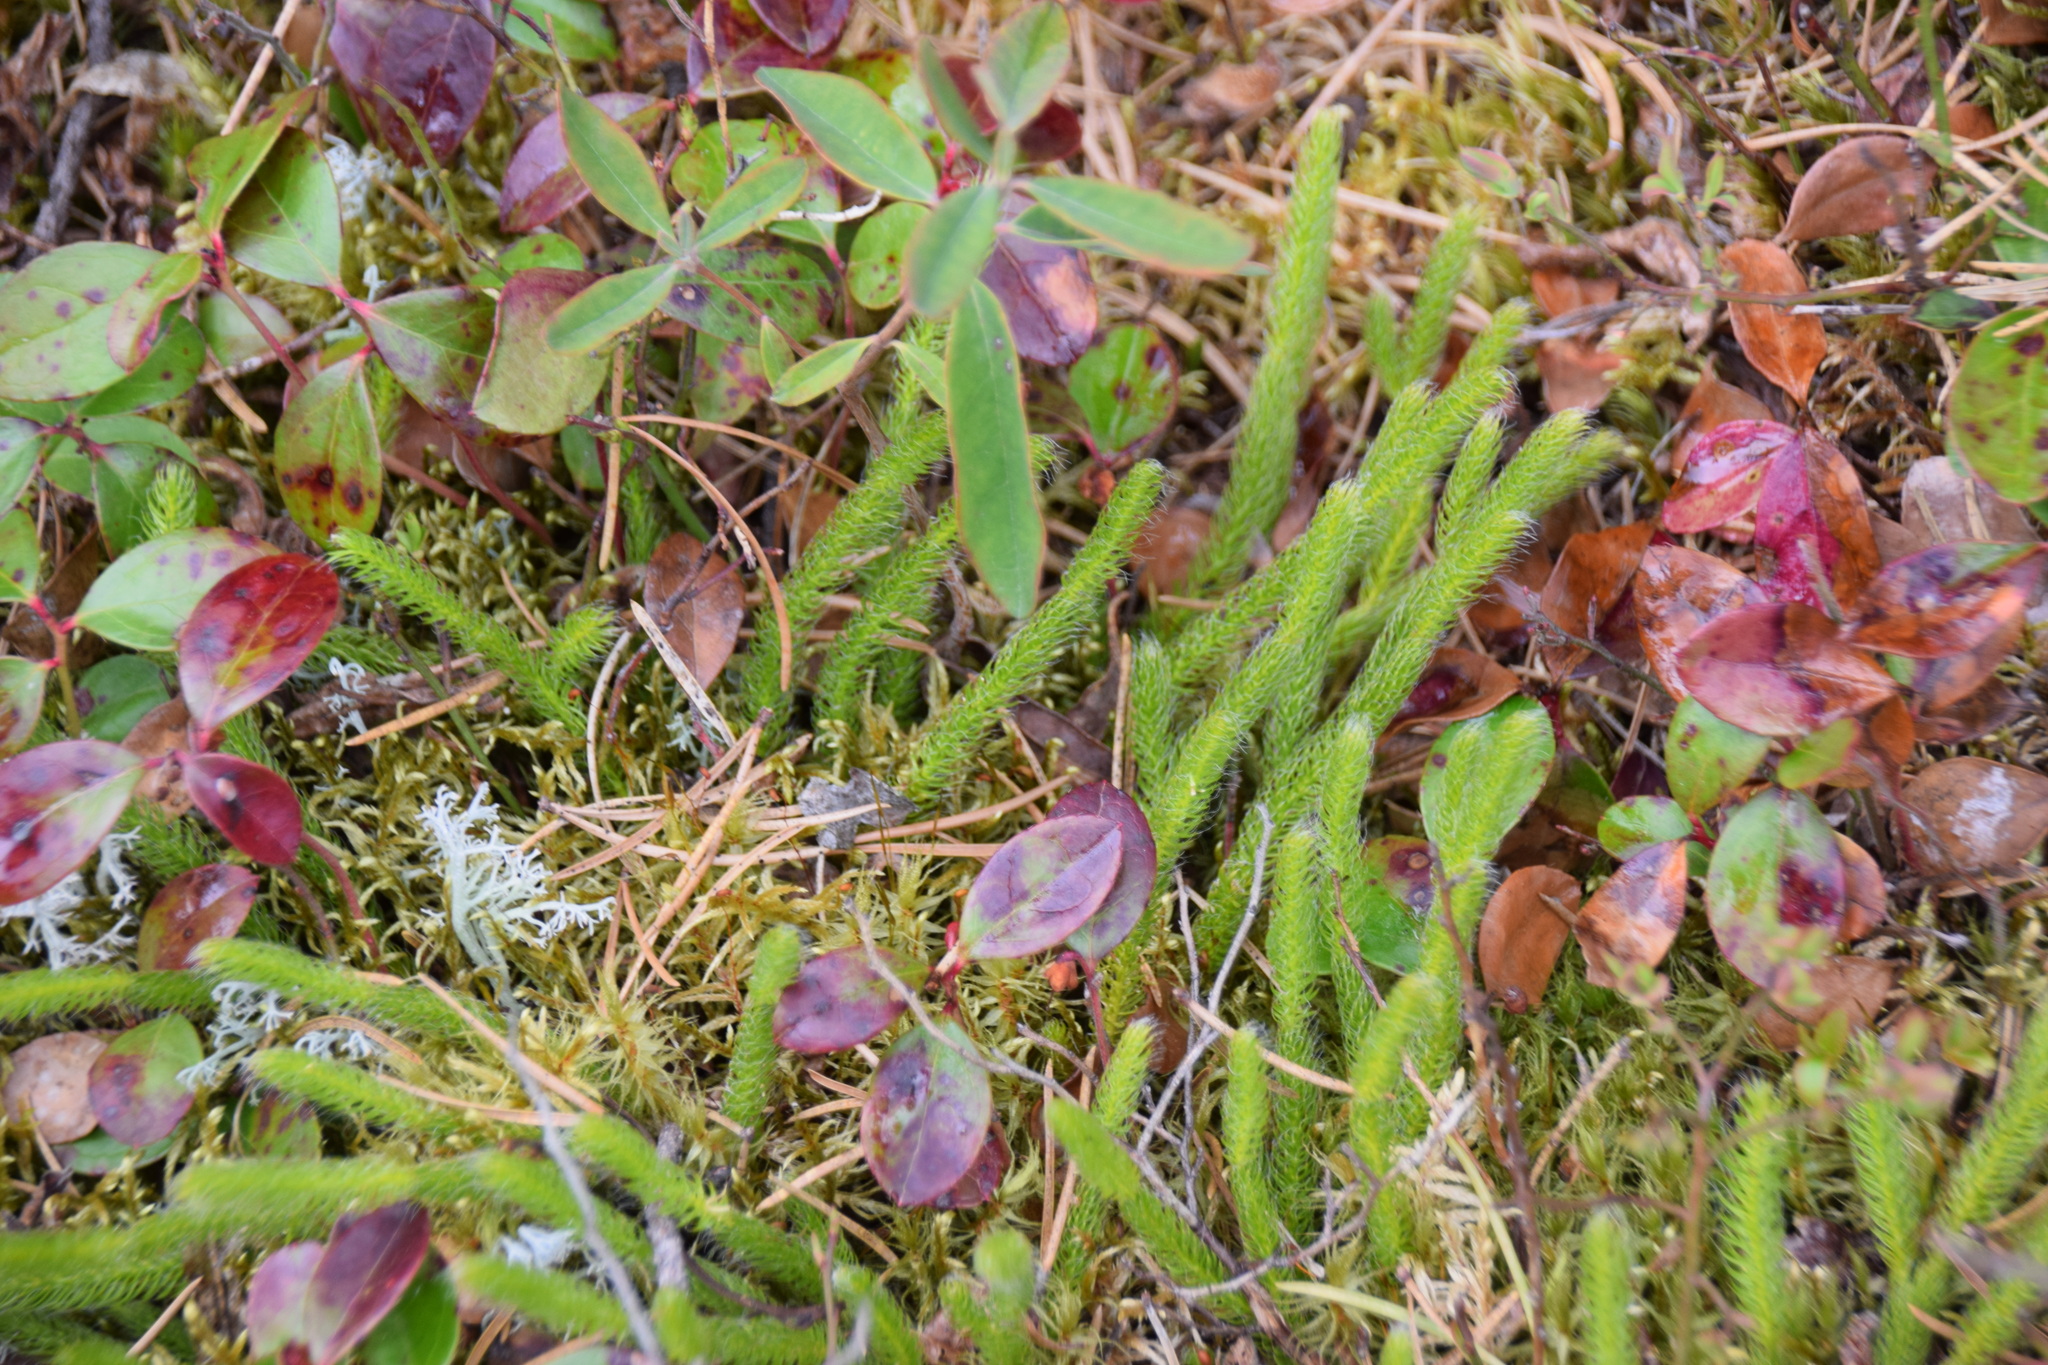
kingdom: Plantae
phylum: Tracheophyta
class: Lycopodiopsida
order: Lycopodiales
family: Lycopodiaceae
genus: Lycopodium
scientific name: Lycopodium clavatum
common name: Stag's-horn clubmoss
